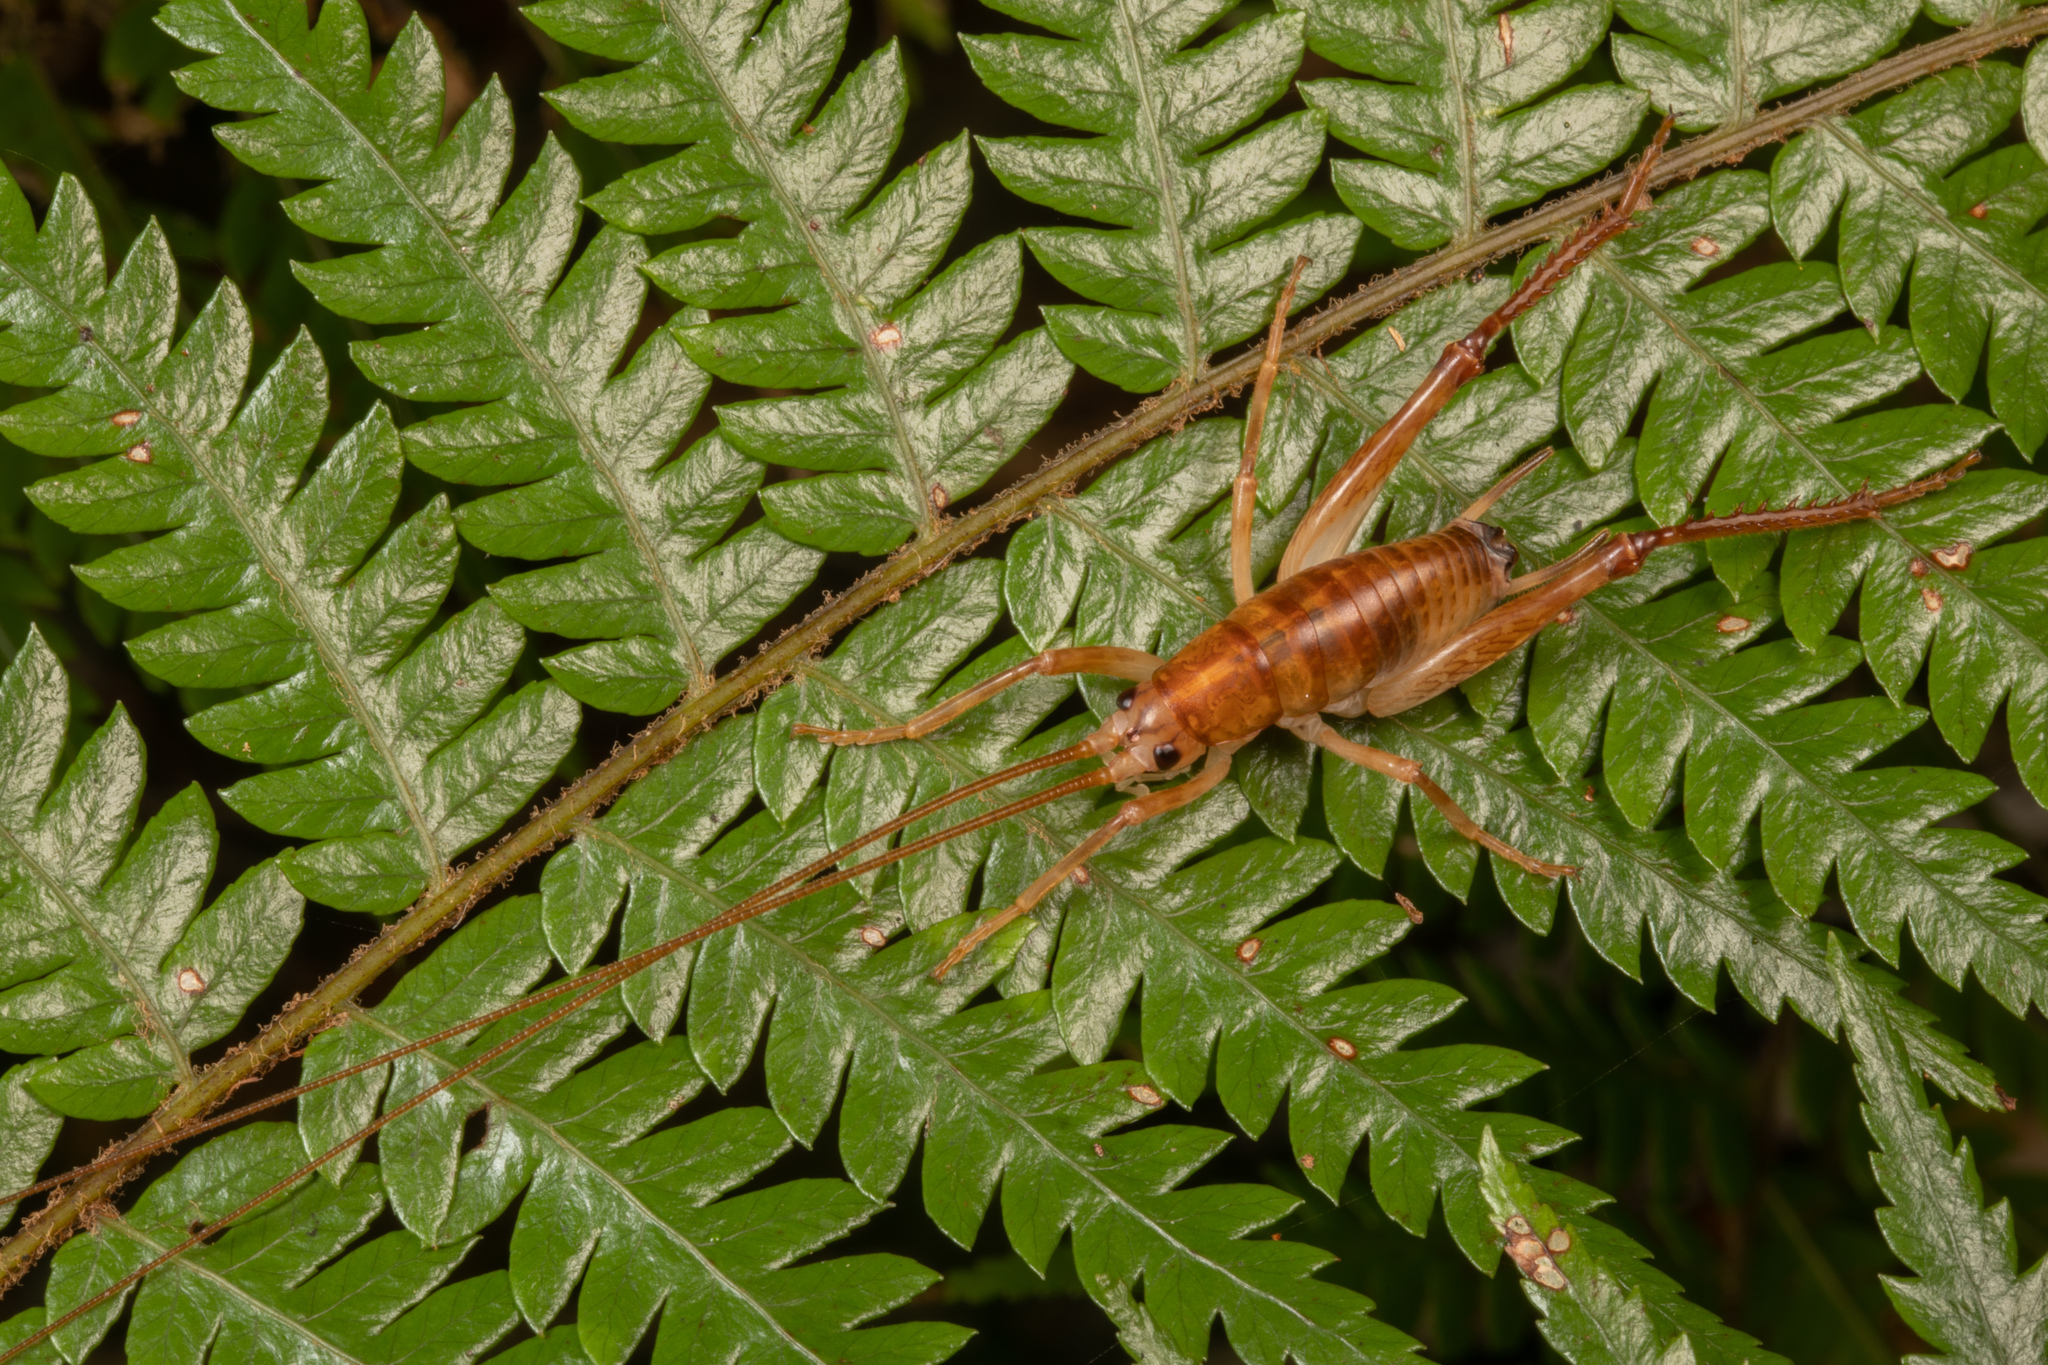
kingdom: Animalia
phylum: Arthropoda
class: Insecta
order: Orthoptera
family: Rhaphidophoridae
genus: Talitropsis
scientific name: Talitropsis sedilloti
